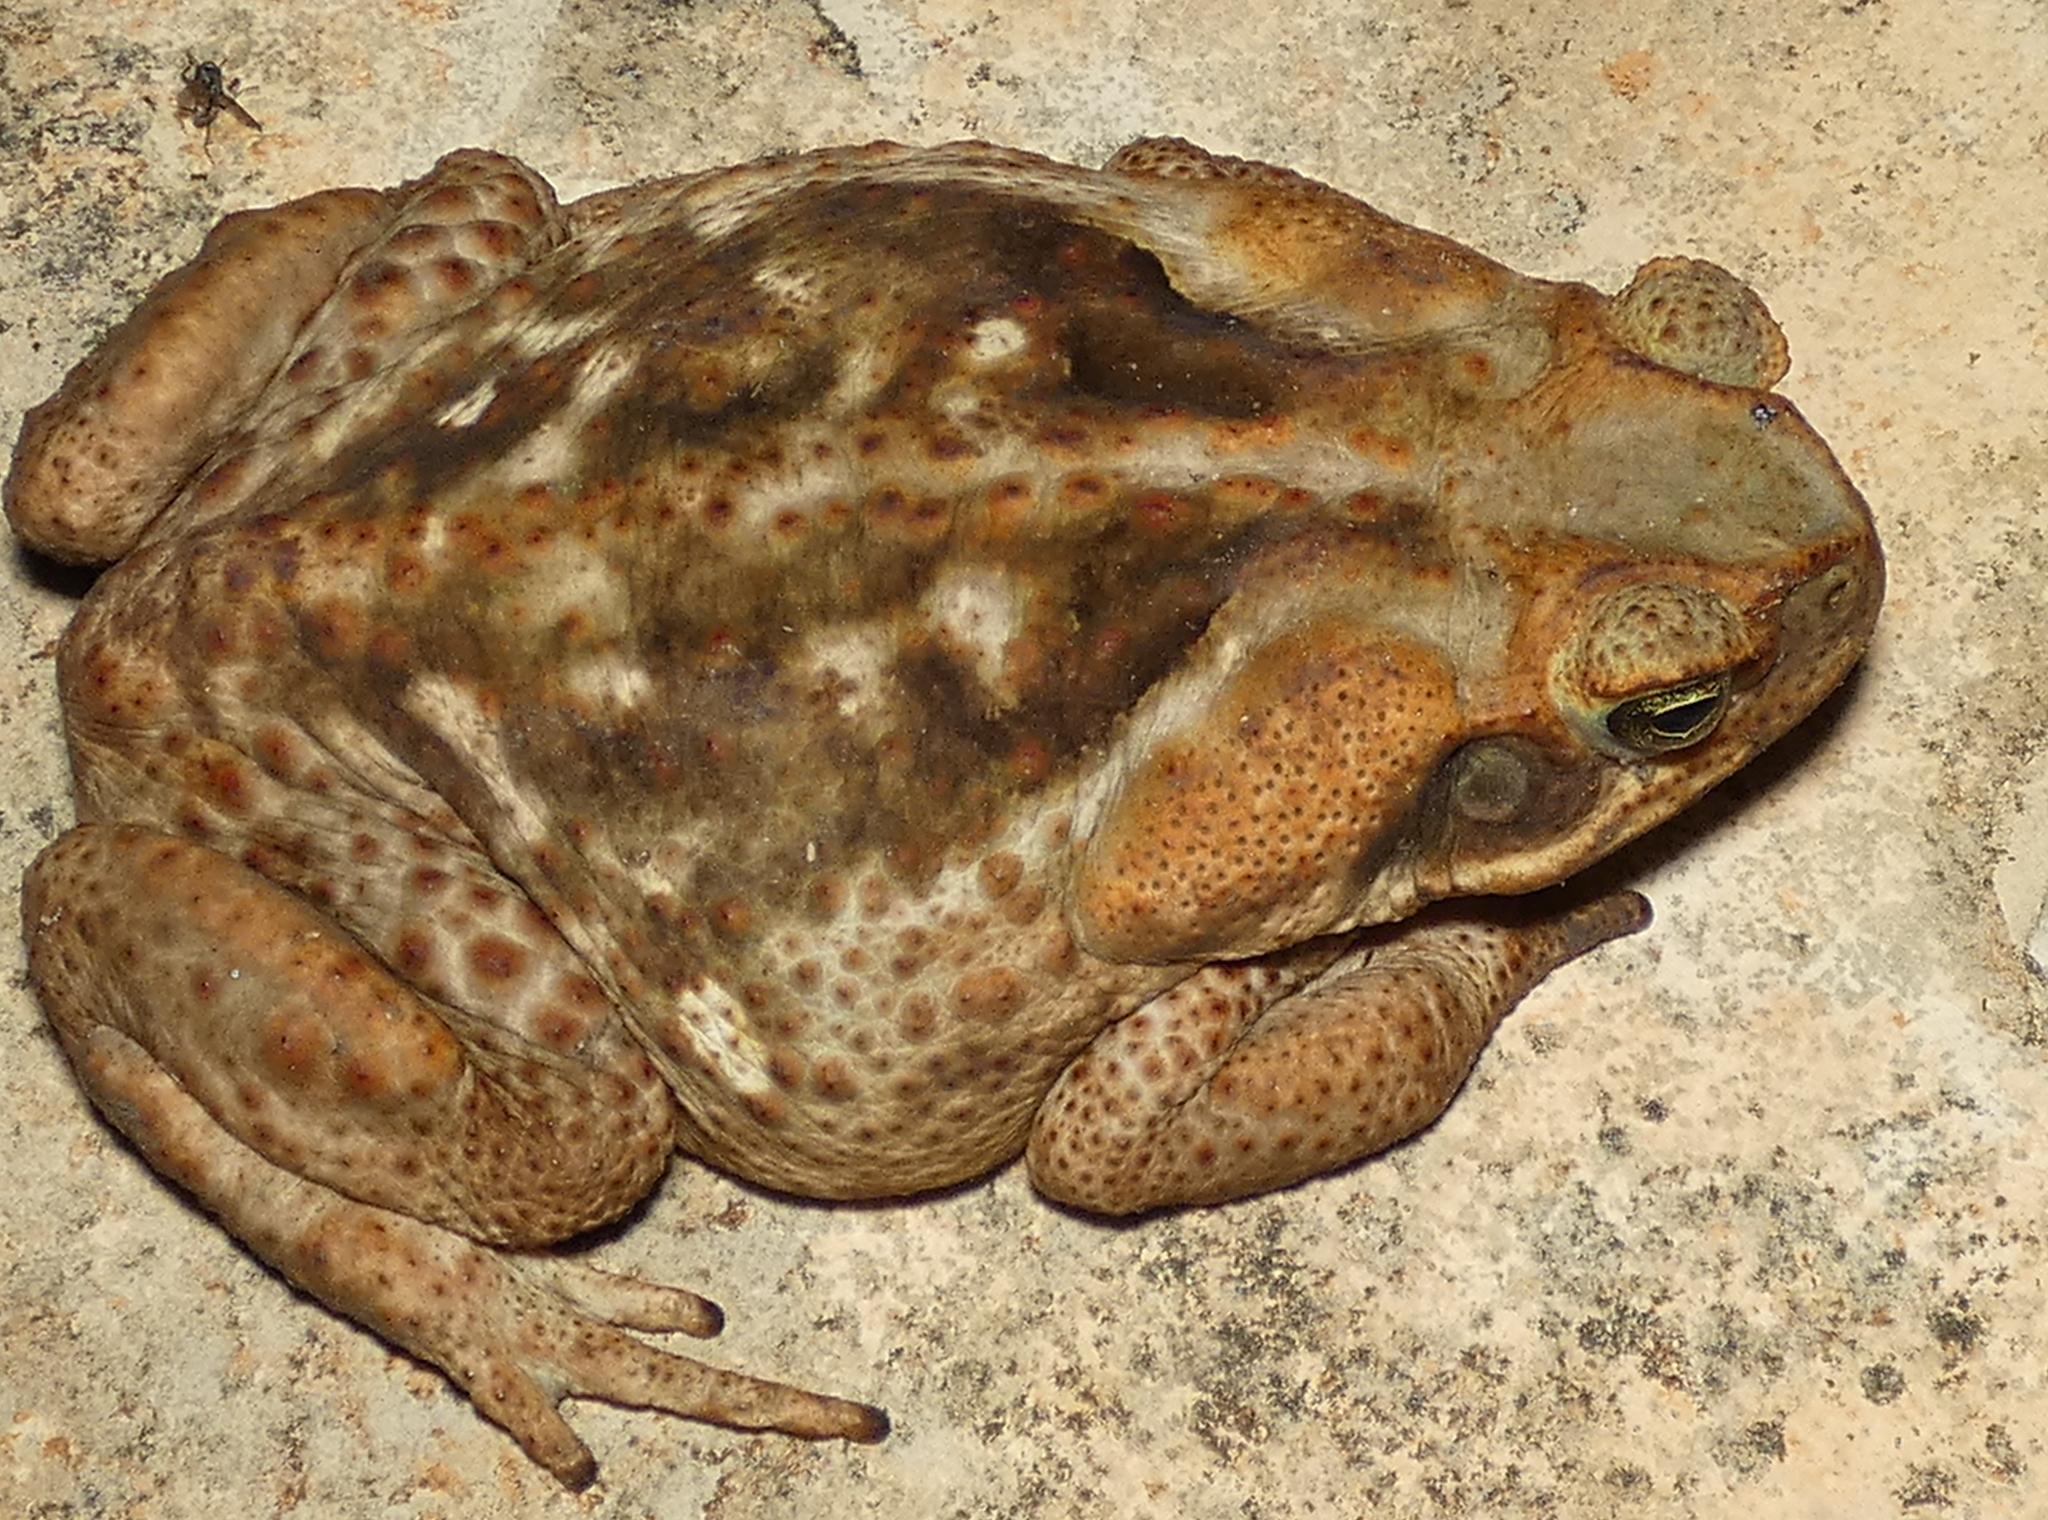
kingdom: Animalia
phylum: Chordata
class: Amphibia
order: Anura
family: Bufonidae
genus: Rhinella
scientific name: Rhinella diptycha
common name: Cope's toad
